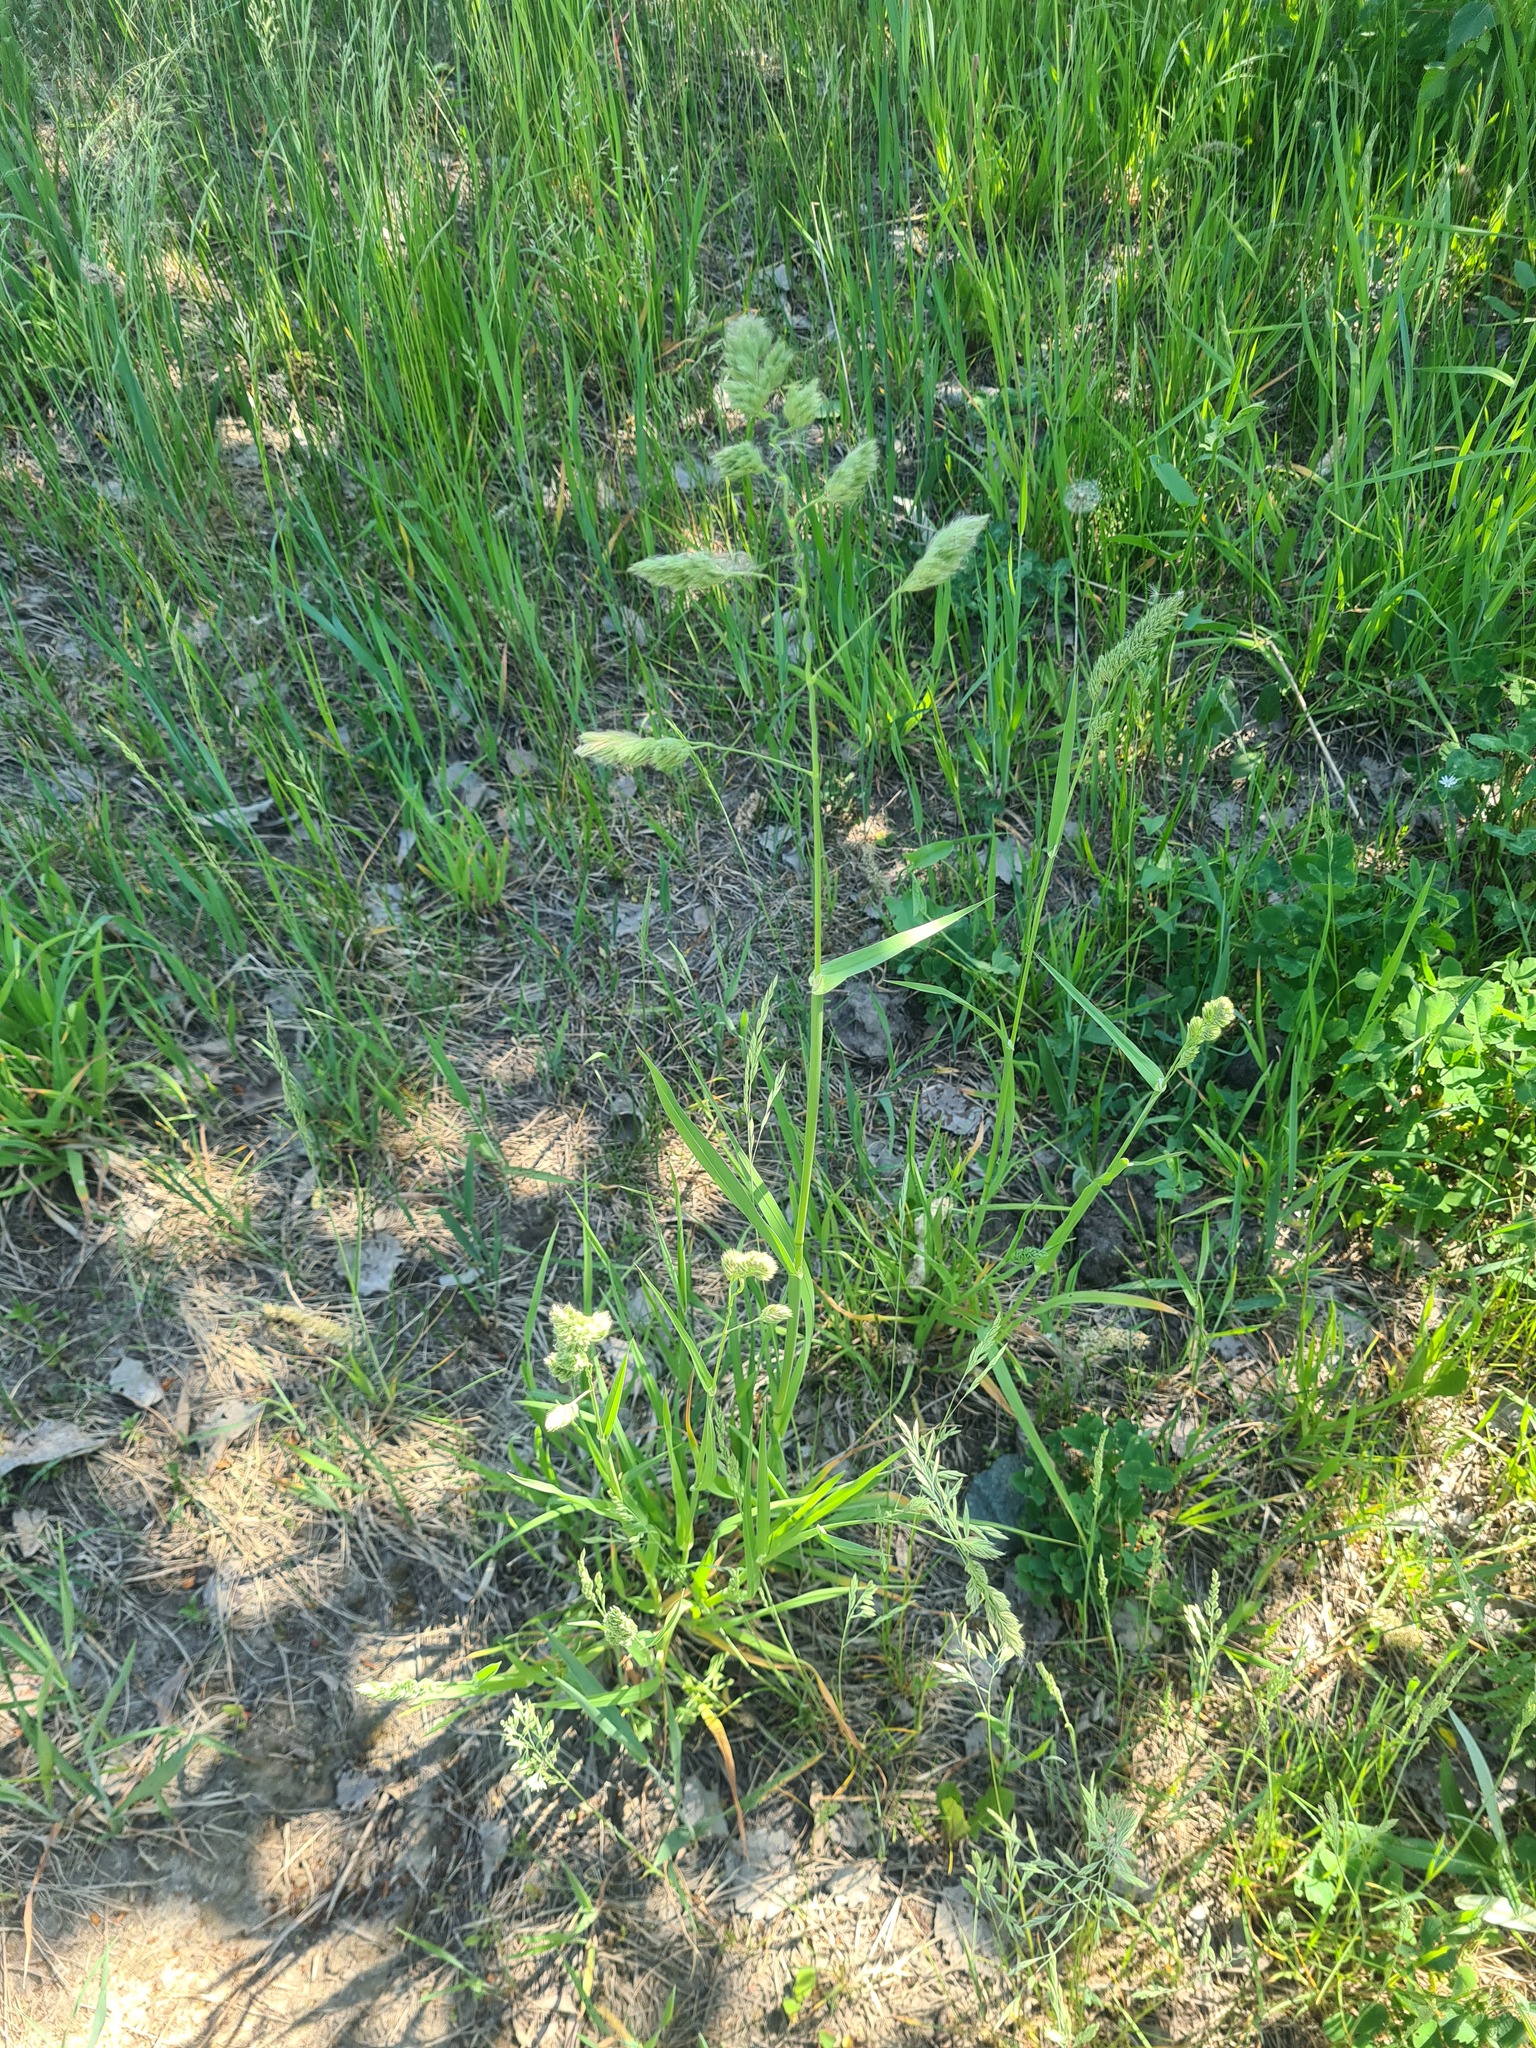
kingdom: Plantae
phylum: Tracheophyta
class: Liliopsida
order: Poales
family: Poaceae
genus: Dactylis
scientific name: Dactylis glomerata
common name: Orchardgrass
